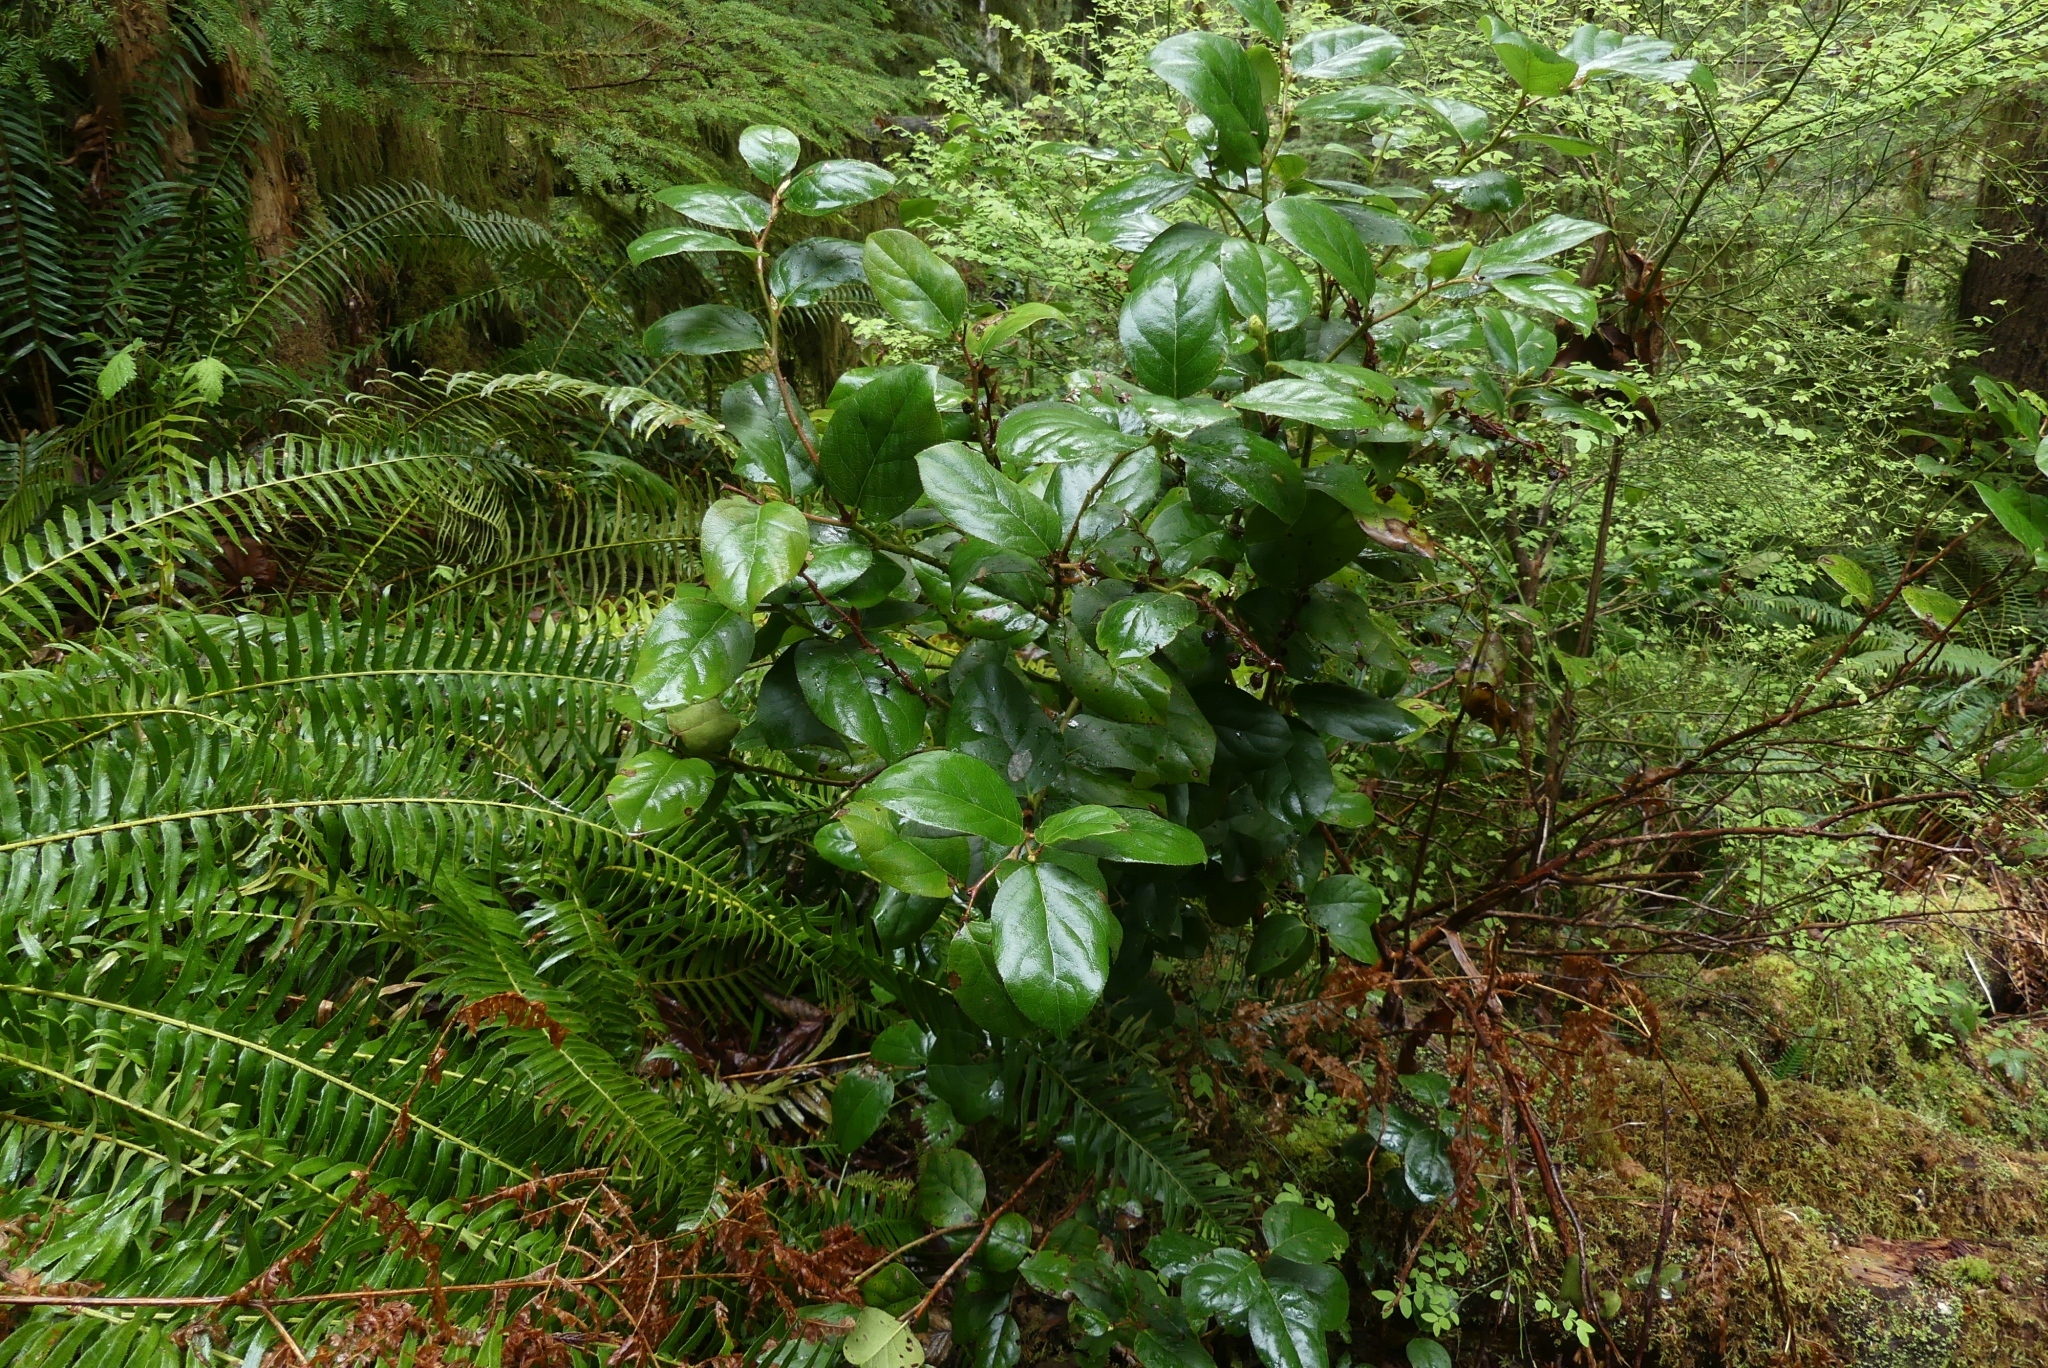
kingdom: Plantae
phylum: Tracheophyta
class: Magnoliopsida
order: Ericales
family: Ericaceae
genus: Gaultheria
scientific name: Gaultheria shallon
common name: Shallon
